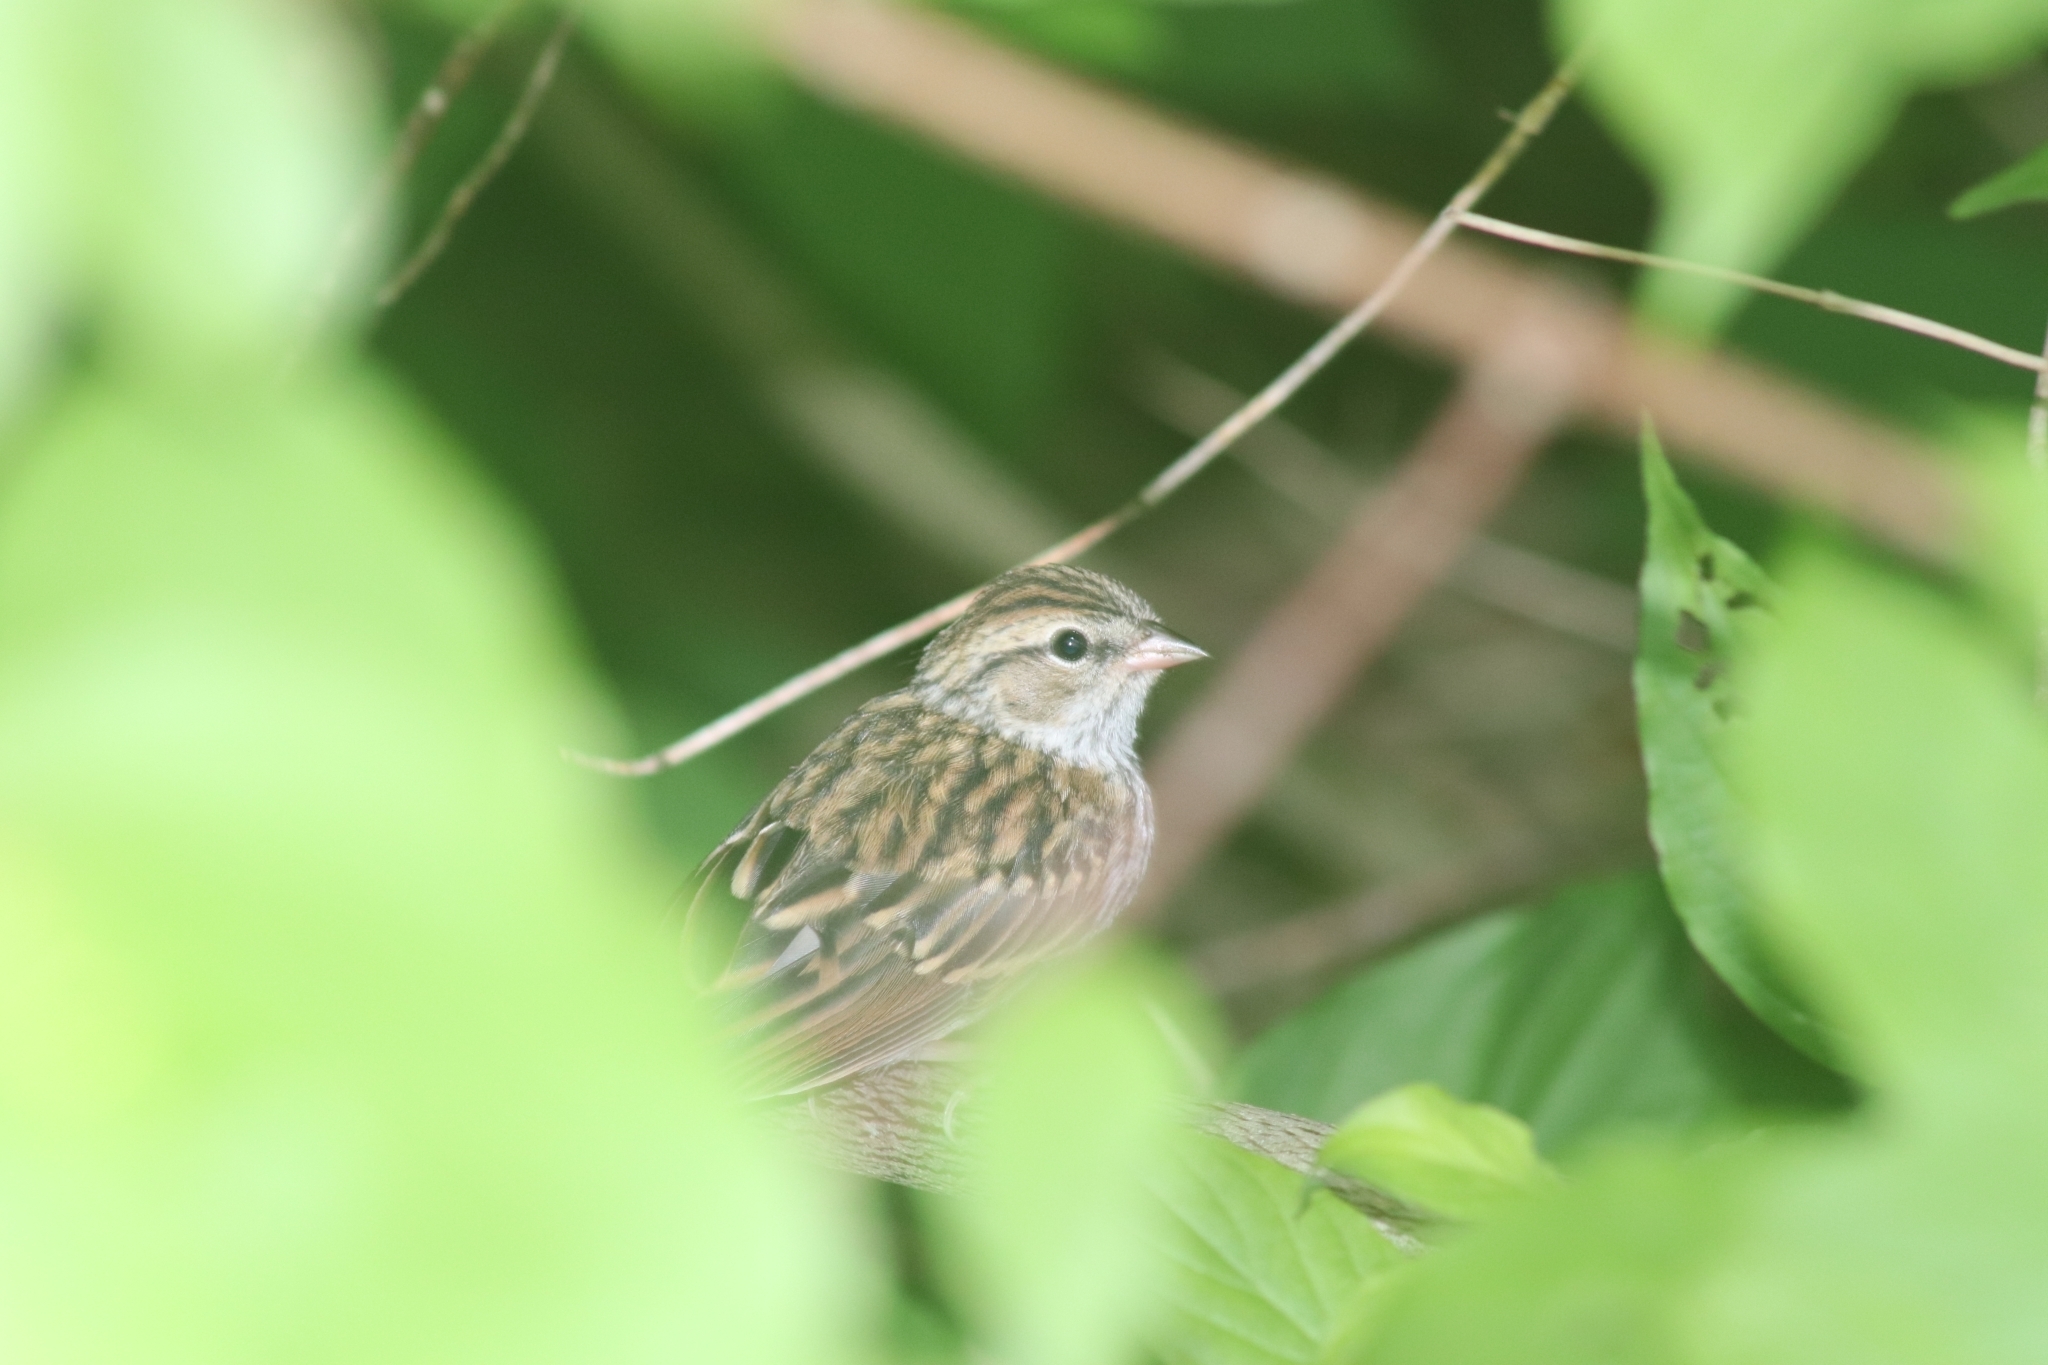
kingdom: Animalia
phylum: Chordata
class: Aves
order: Passeriformes
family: Passerellidae
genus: Spizella
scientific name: Spizella passerina
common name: Chipping sparrow
